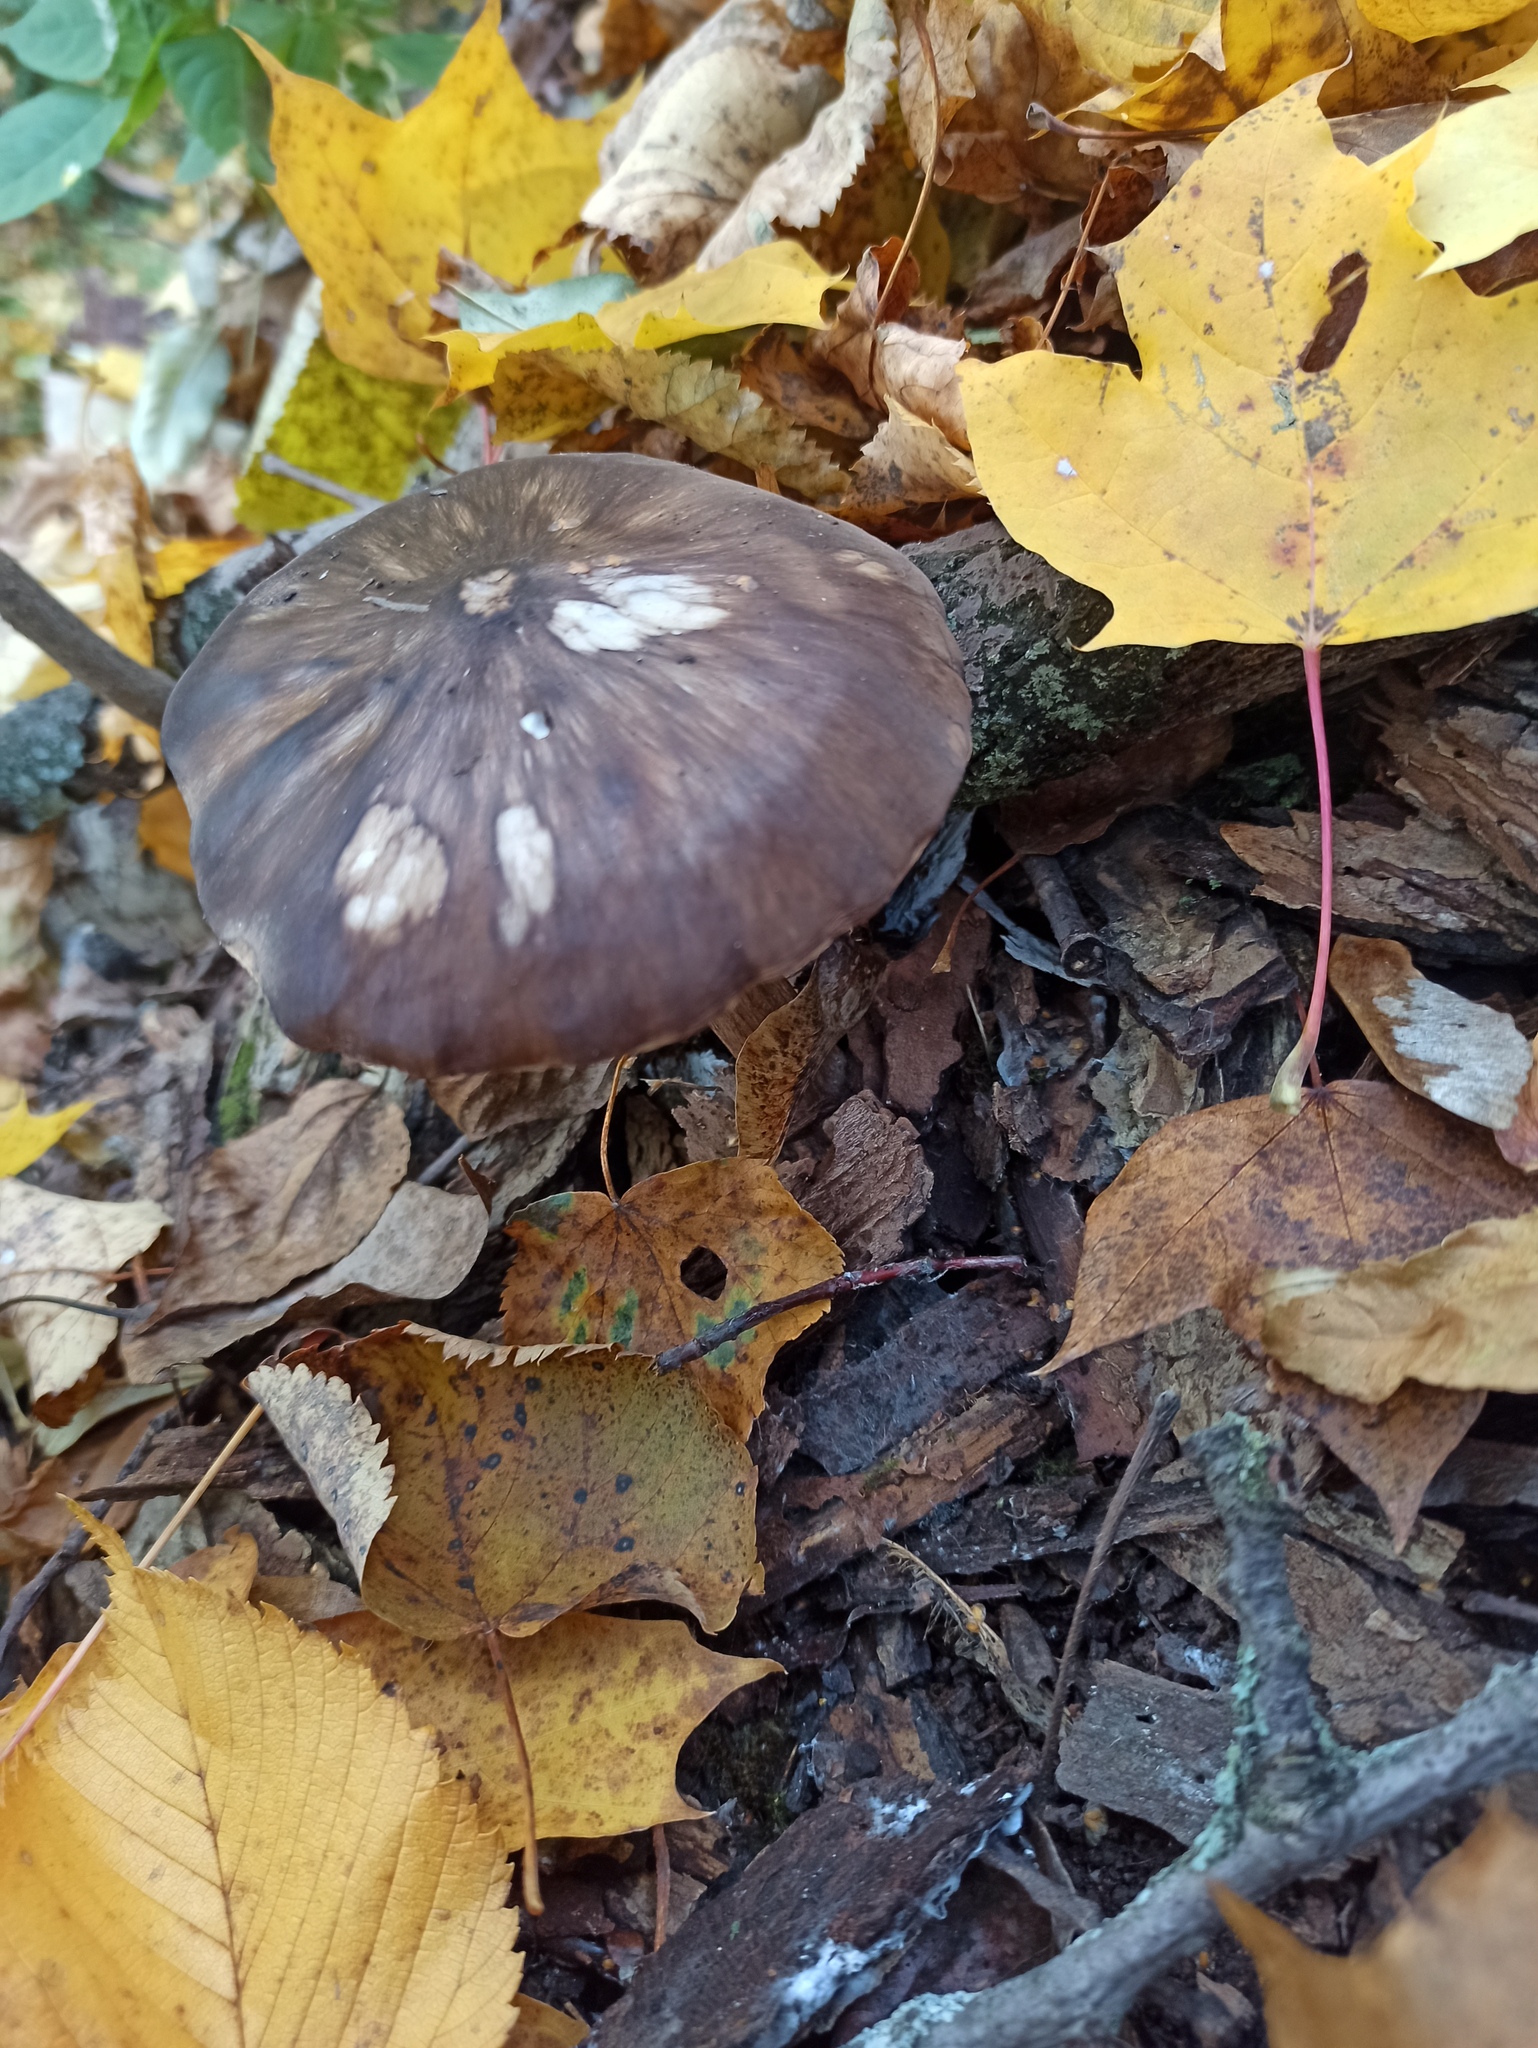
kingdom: Fungi
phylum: Basidiomycota
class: Agaricomycetes
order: Agaricales
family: Pluteaceae
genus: Pluteus
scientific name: Pluteus
